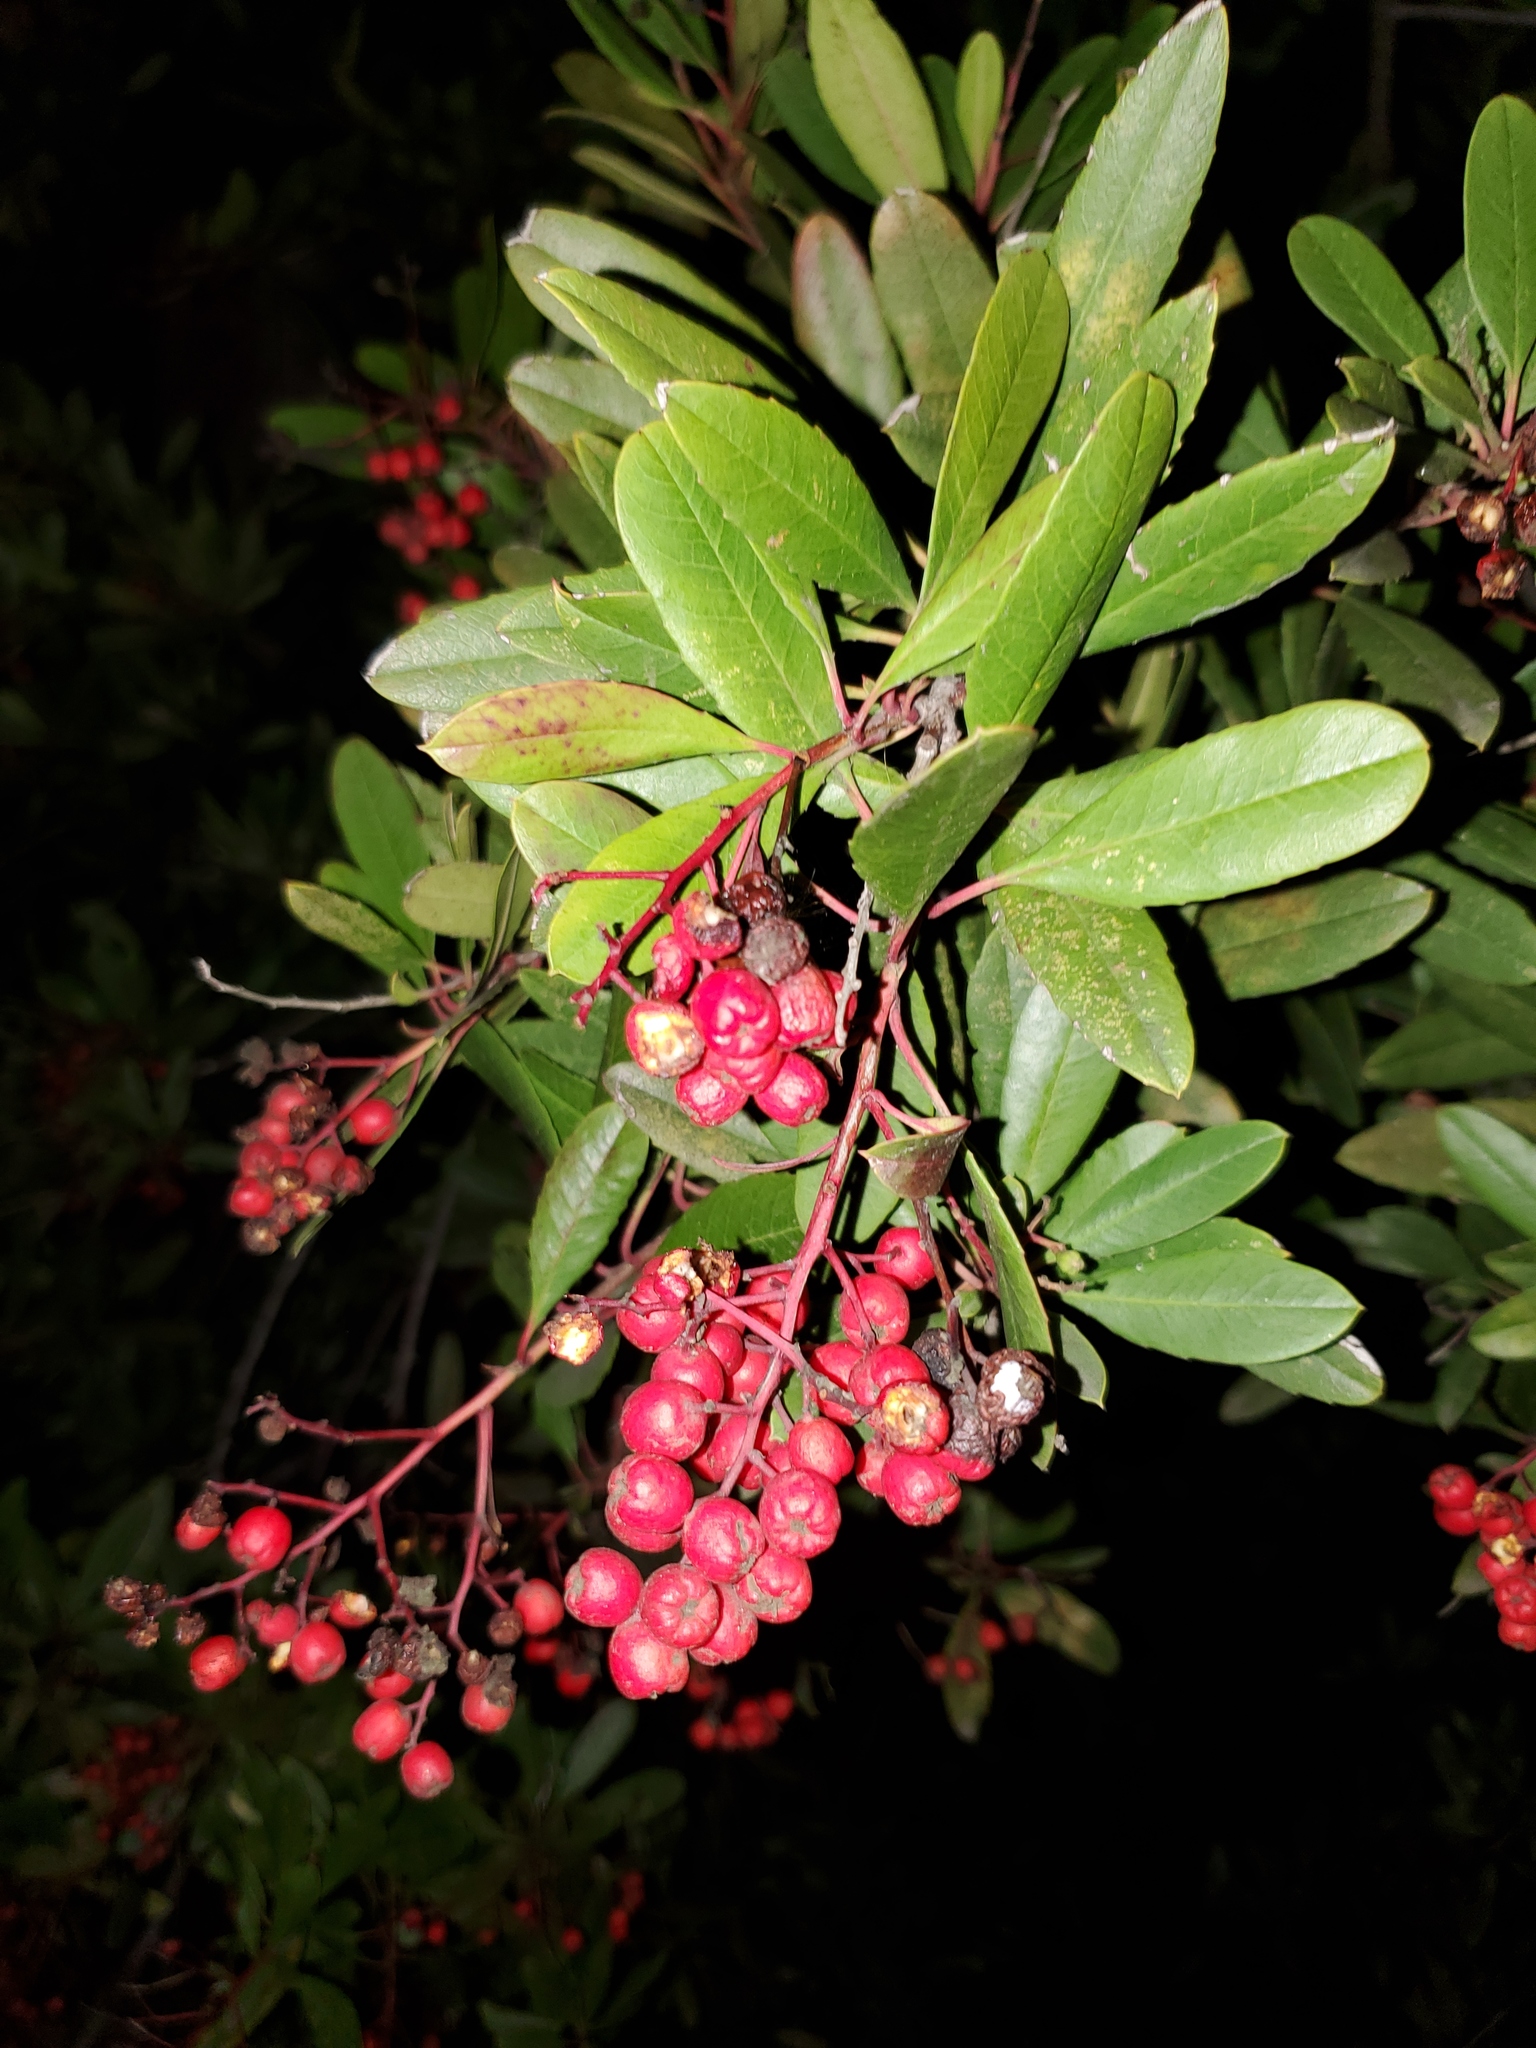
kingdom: Plantae
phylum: Tracheophyta
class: Magnoliopsida
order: Rosales
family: Rosaceae
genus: Heteromeles
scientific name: Heteromeles arbutifolia
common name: California-holly
